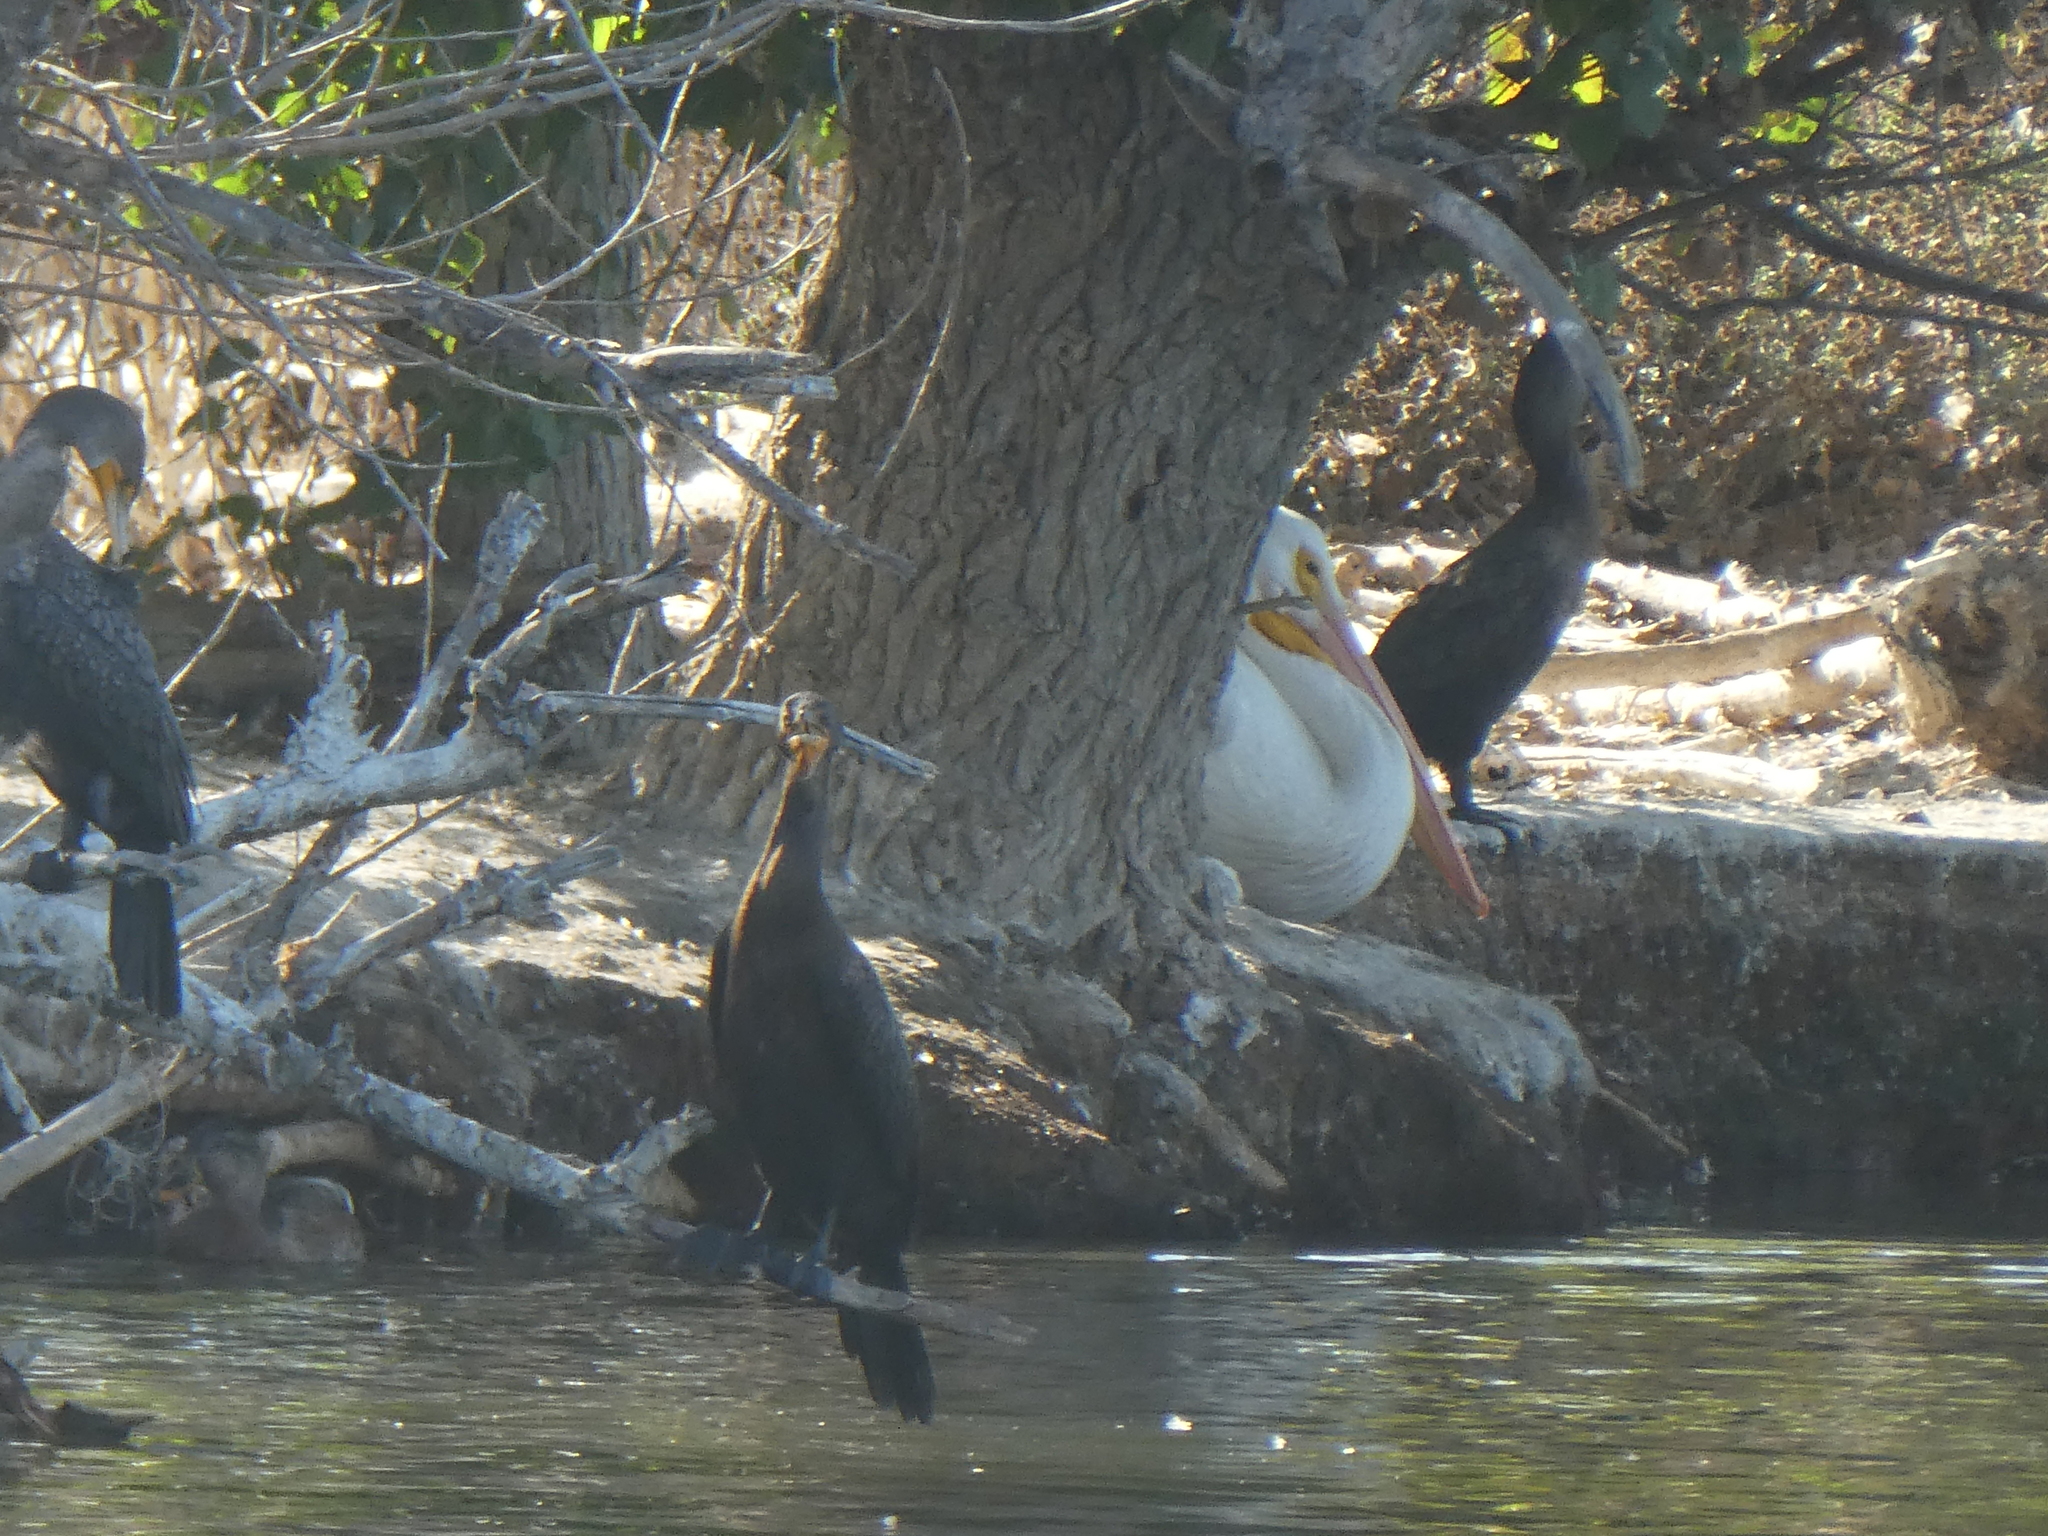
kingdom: Animalia
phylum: Chordata
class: Aves
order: Pelecaniformes
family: Pelecanidae
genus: Pelecanus
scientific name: Pelecanus erythrorhynchos
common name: American white pelican
